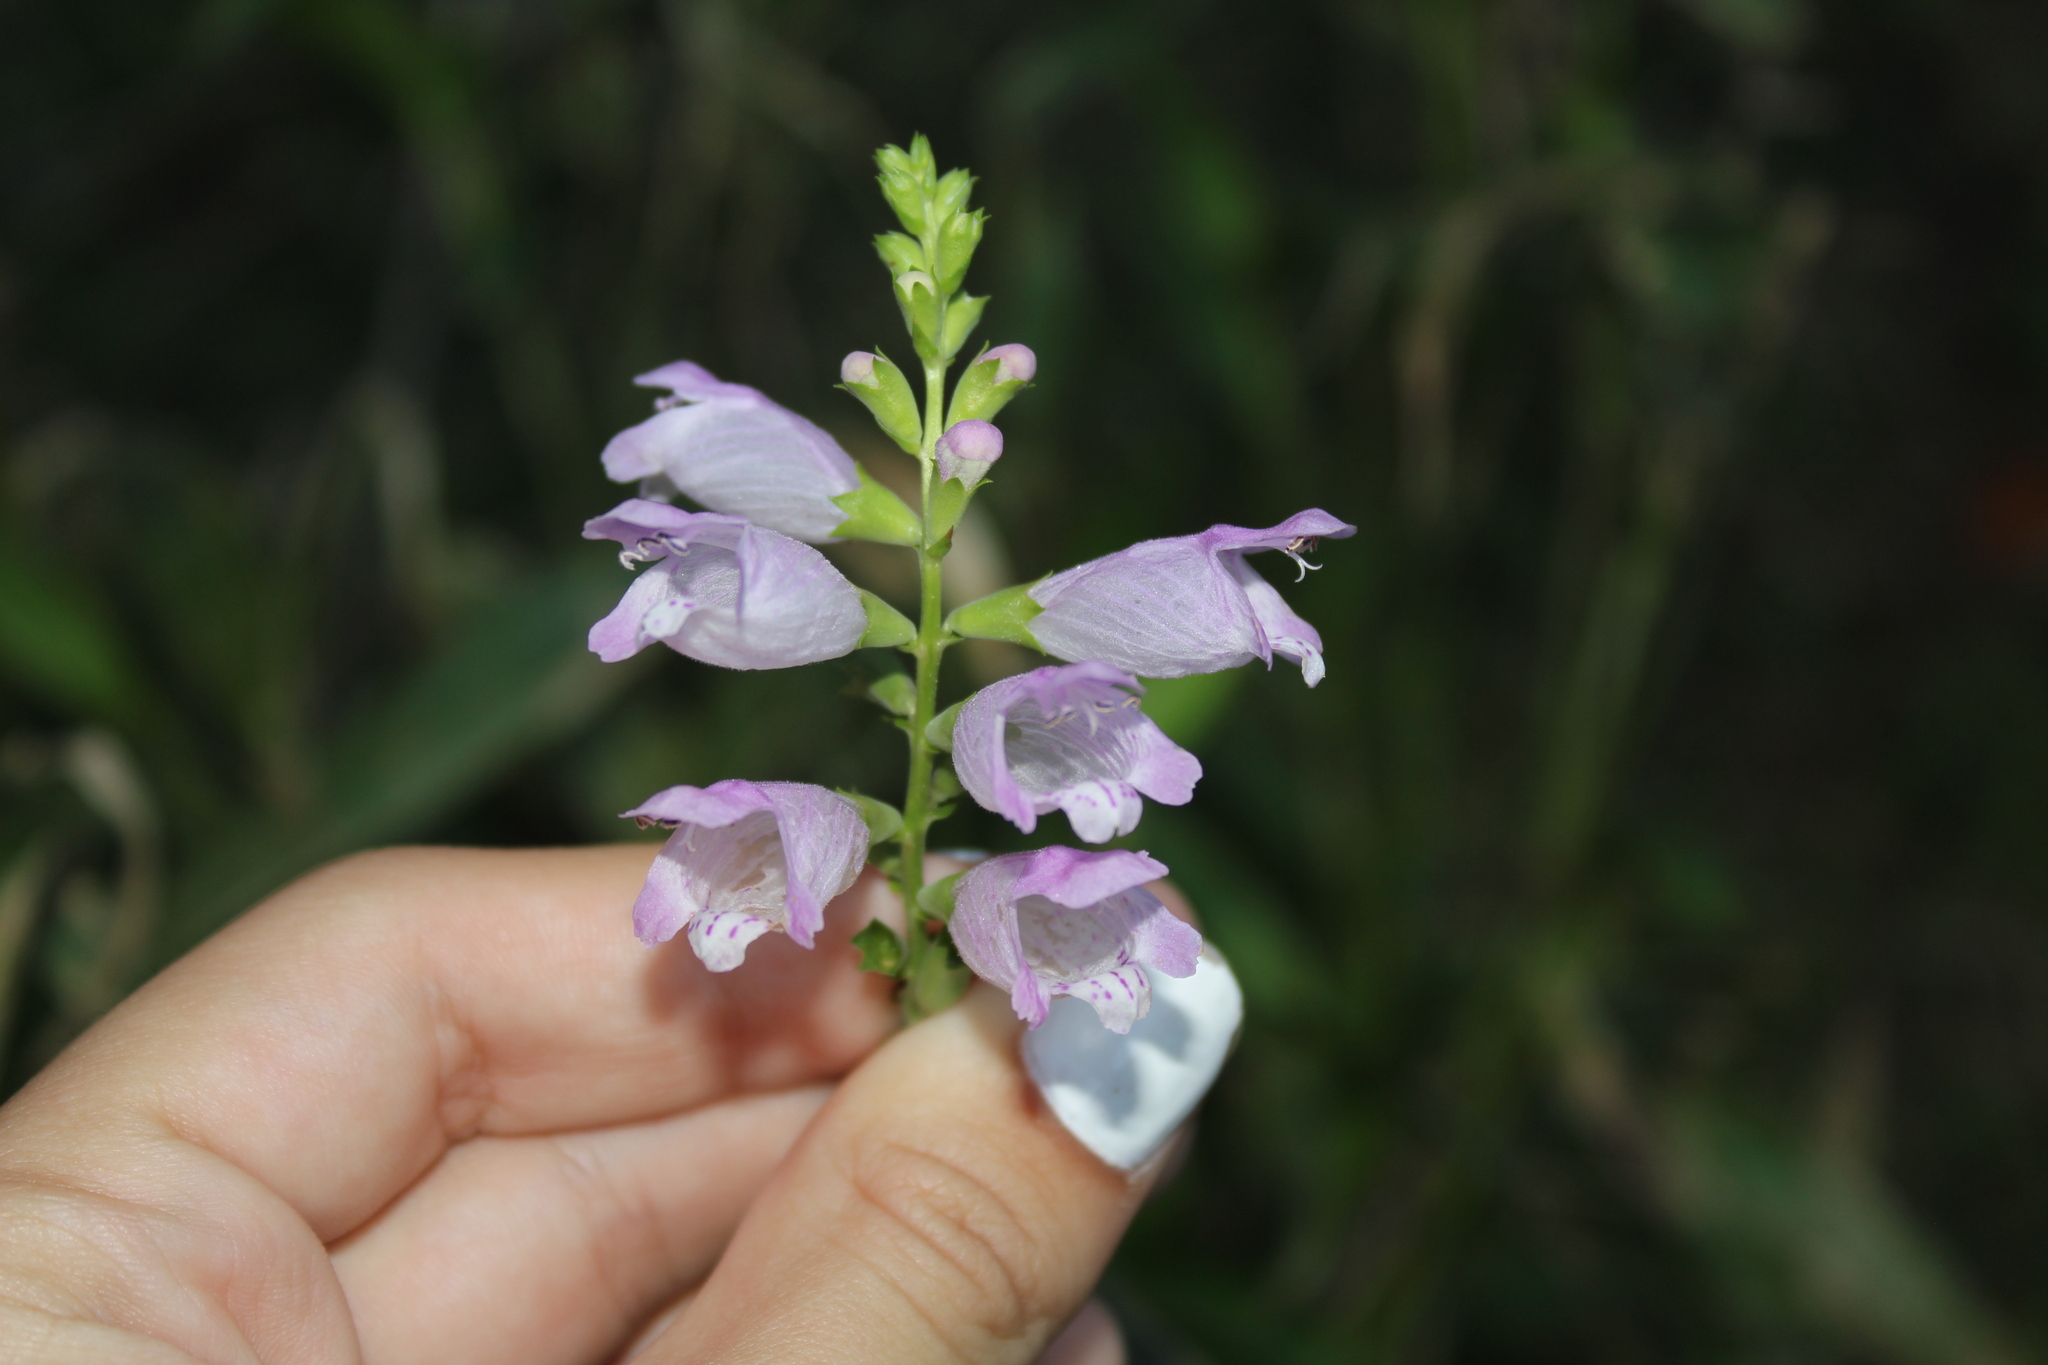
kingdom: Plantae
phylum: Tracheophyta
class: Magnoliopsida
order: Lamiales
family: Lamiaceae
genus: Physostegia
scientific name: Physostegia virginiana
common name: Obedient-plant
